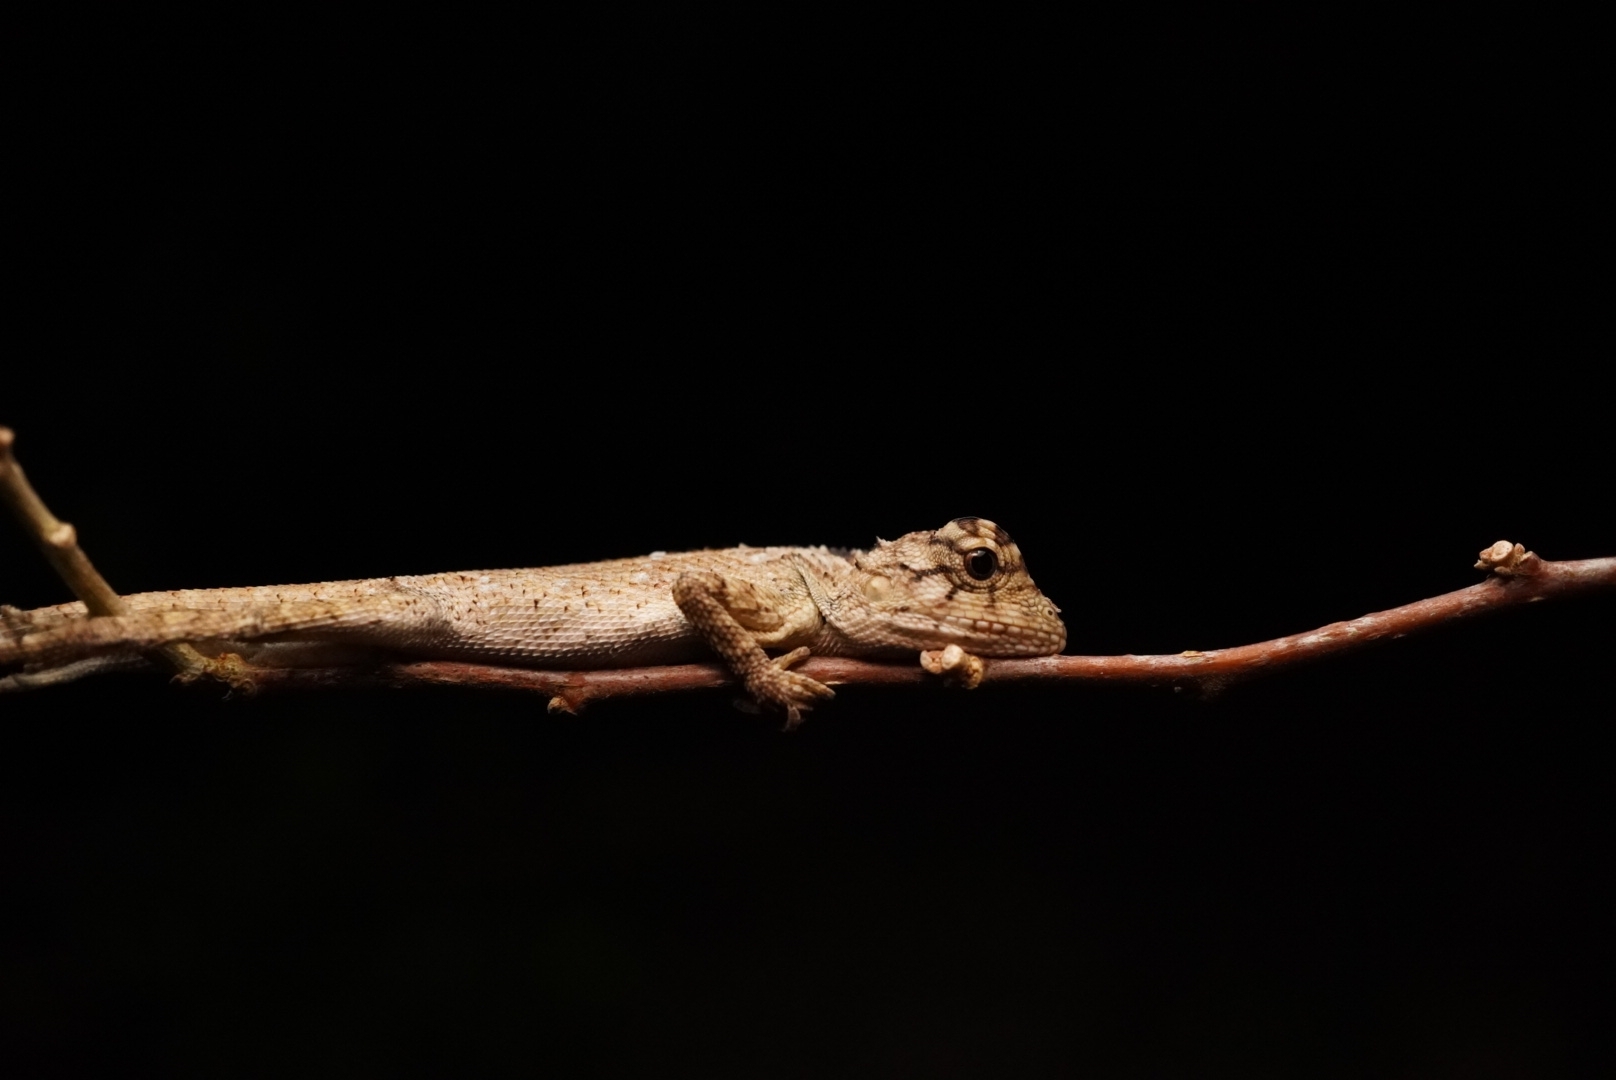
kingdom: Animalia
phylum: Chordata
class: Squamata
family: Agamidae
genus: Calotes
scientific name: Calotes bachae
